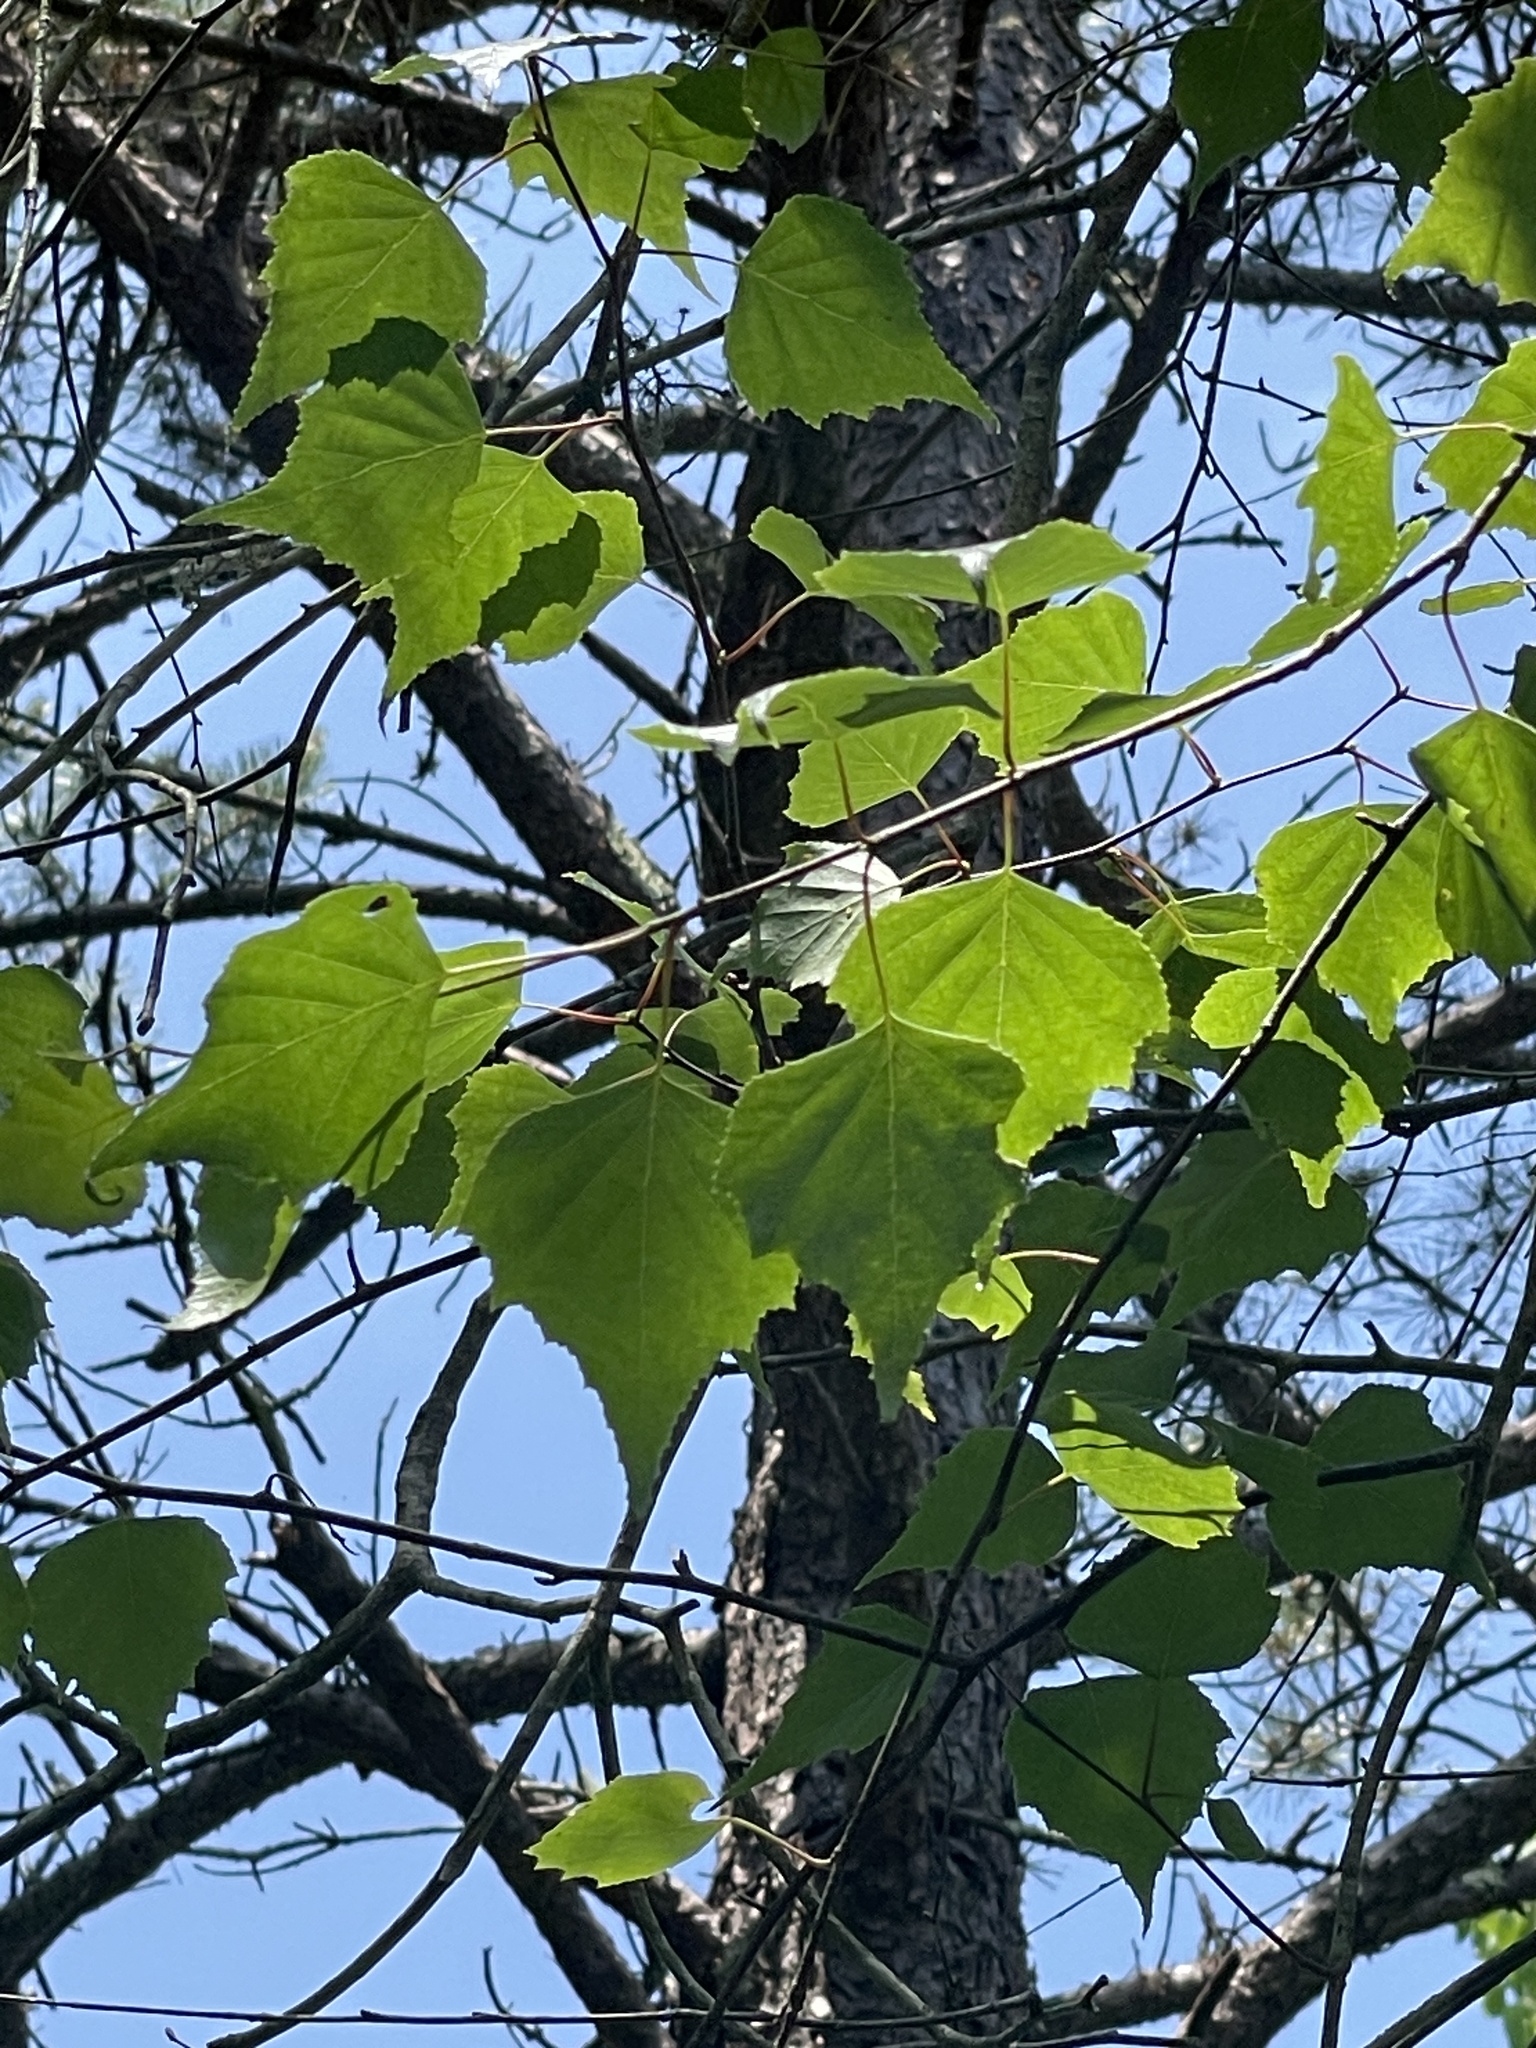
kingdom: Plantae
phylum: Tracheophyta
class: Magnoliopsida
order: Fagales
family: Betulaceae
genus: Betula
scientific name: Betula populifolia
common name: Fire birch
